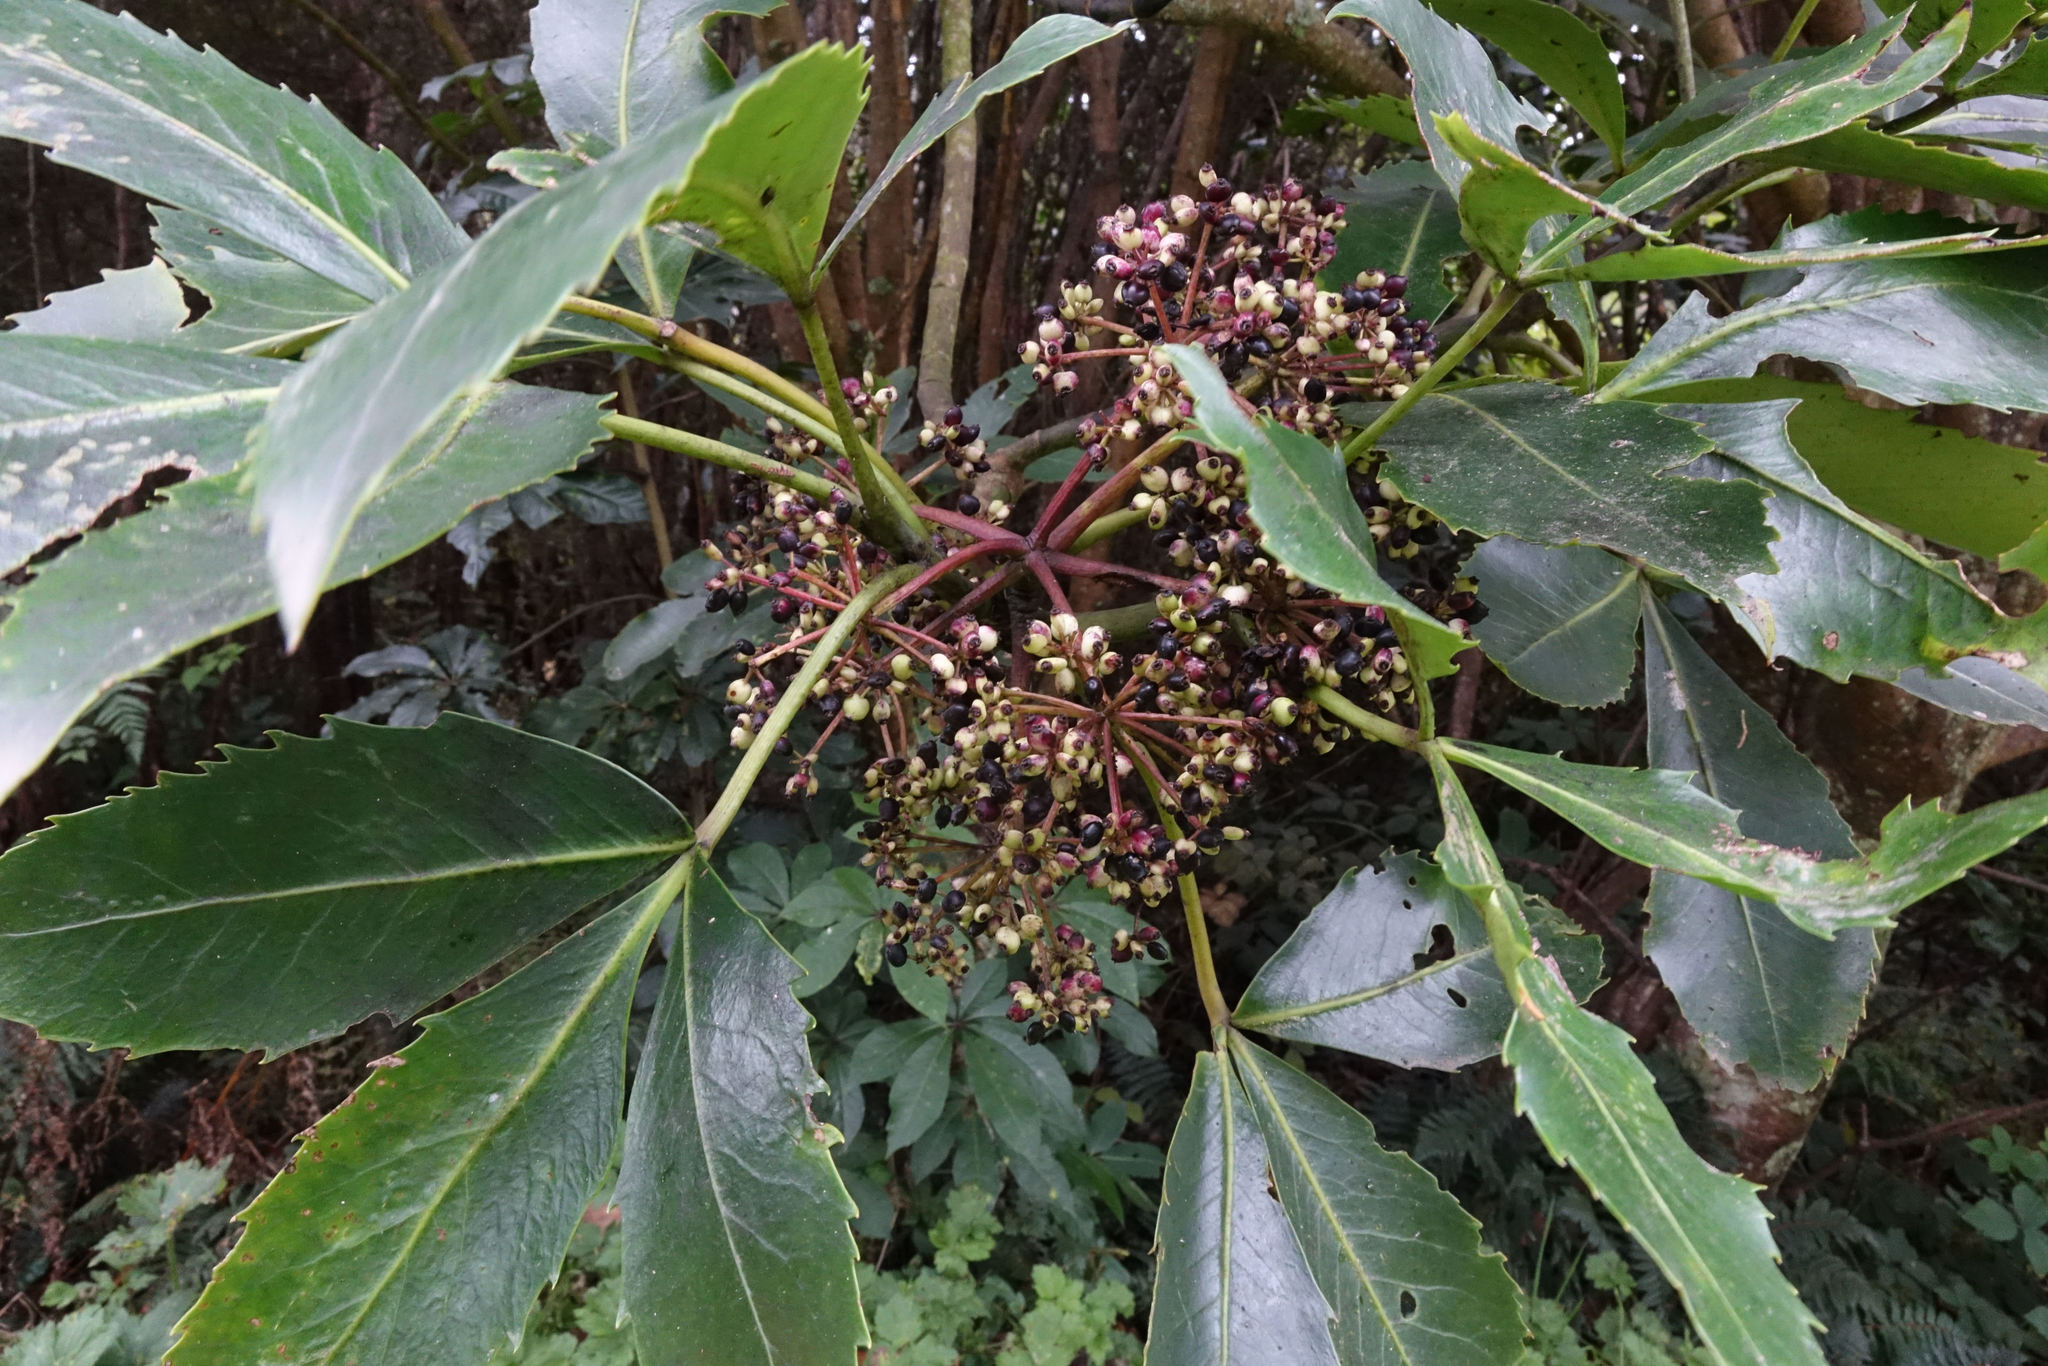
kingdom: Plantae
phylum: Tracheophyta
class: Magnoliopsida
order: Apiales
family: Araliaceae
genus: Neopanax
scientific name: Neopanax colensoi
